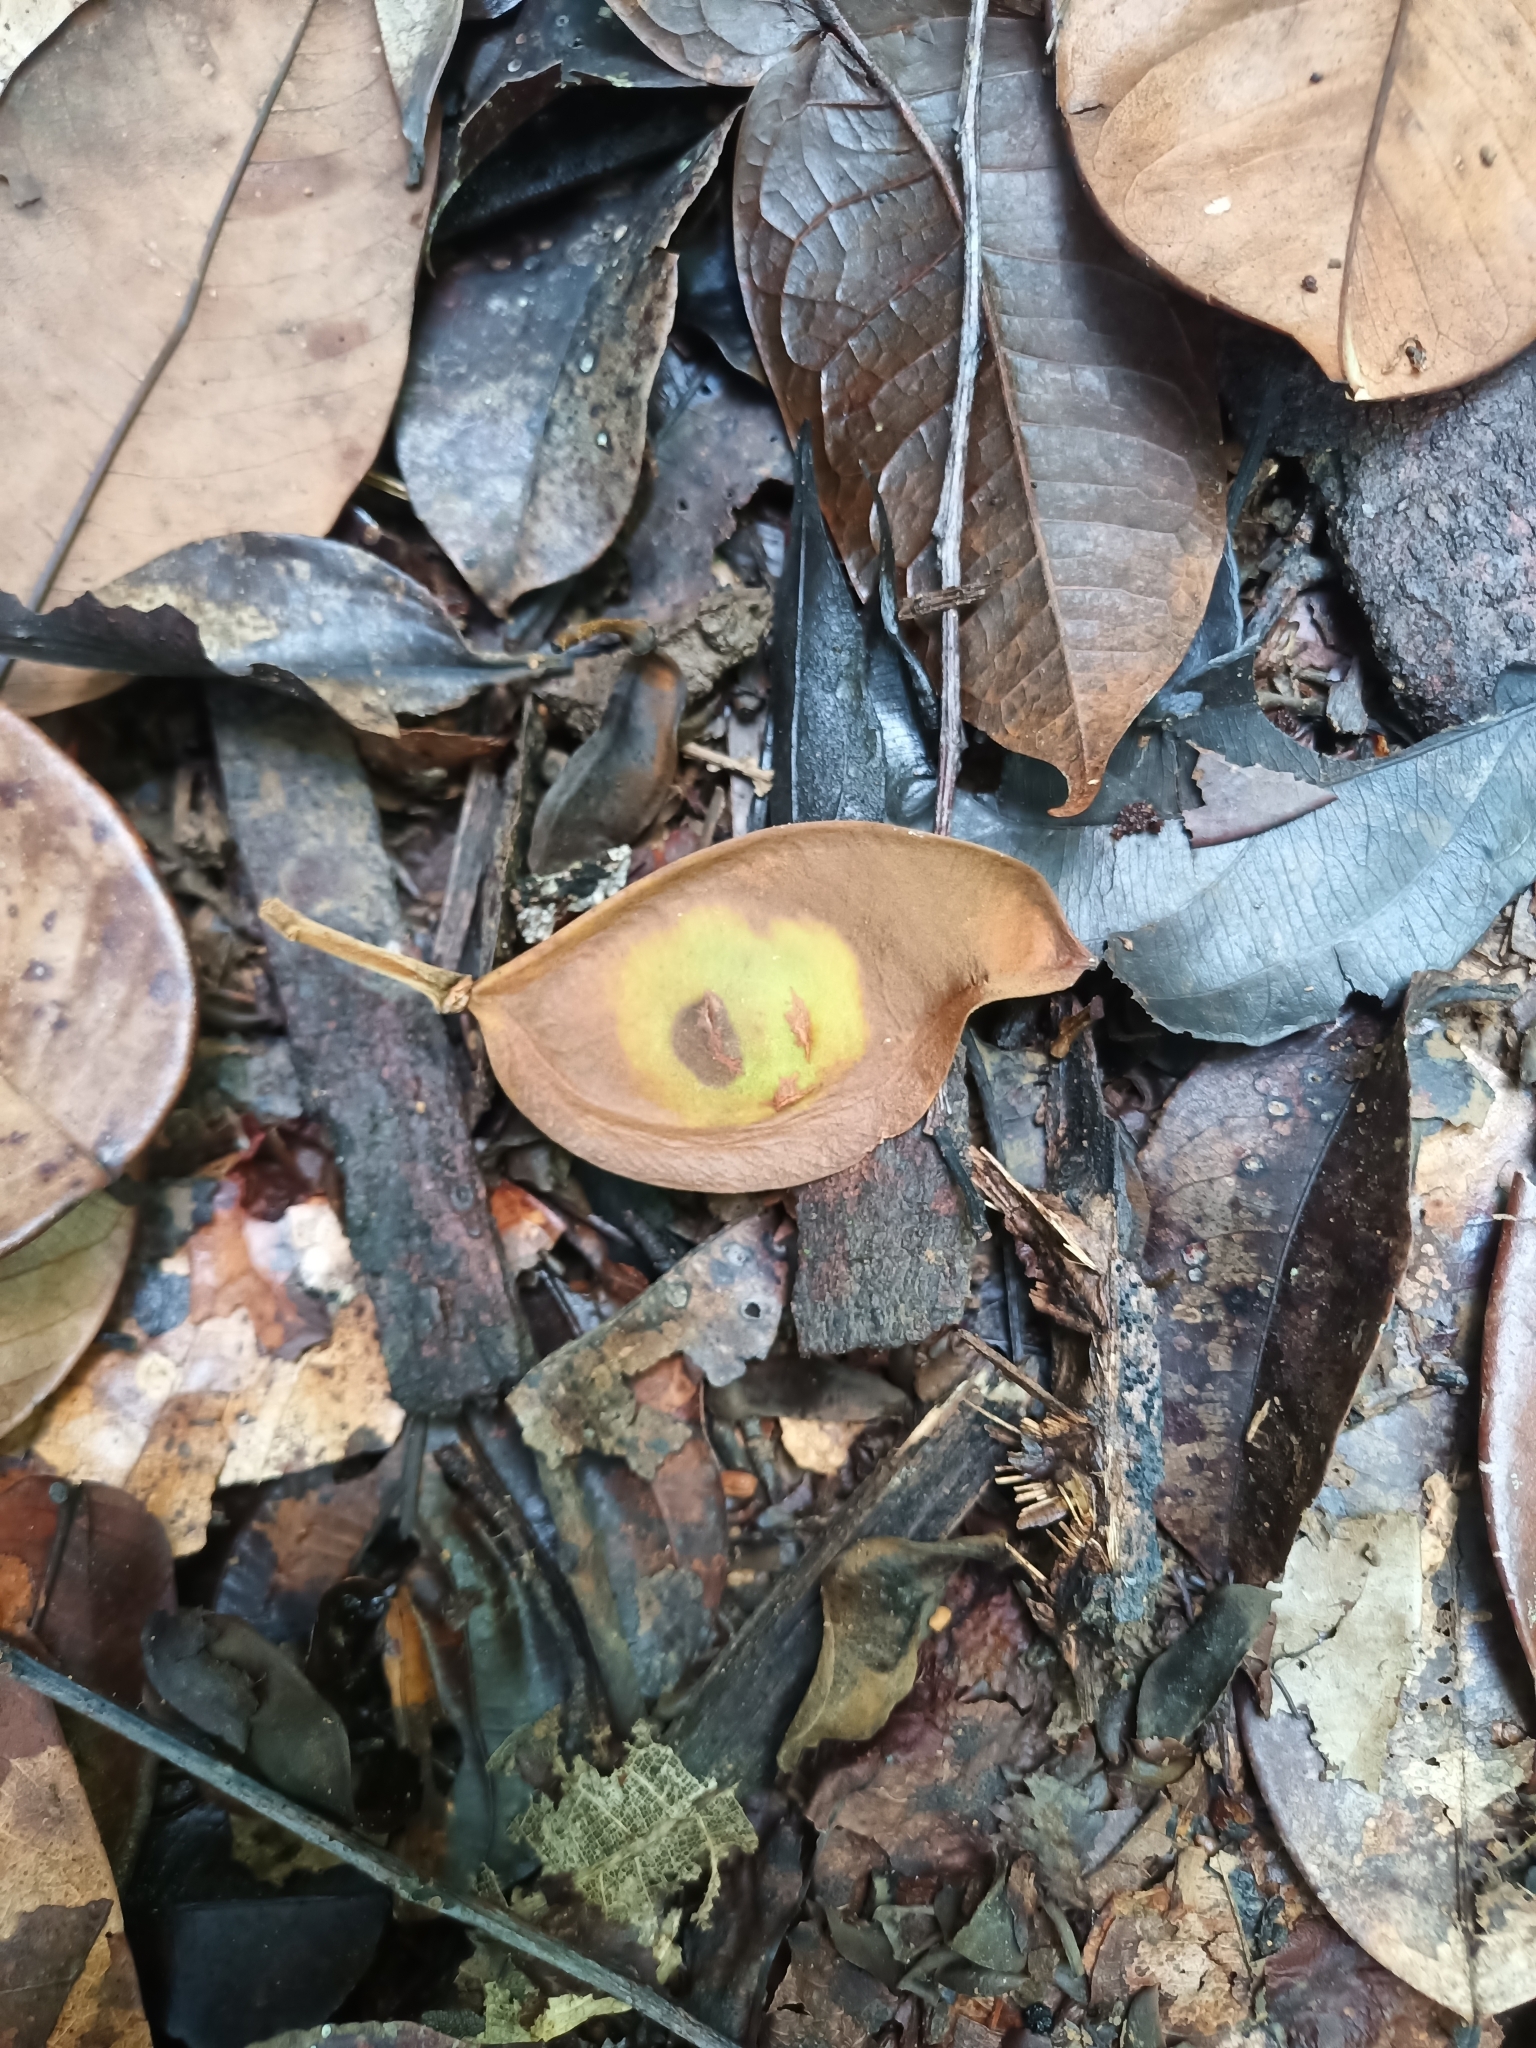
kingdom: Plantae
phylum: Tracheophyta
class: Magnoliopsida
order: Fabales
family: Fabaceae
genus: Dicorynia
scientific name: Dicorynia guianensis
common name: Basralocus
